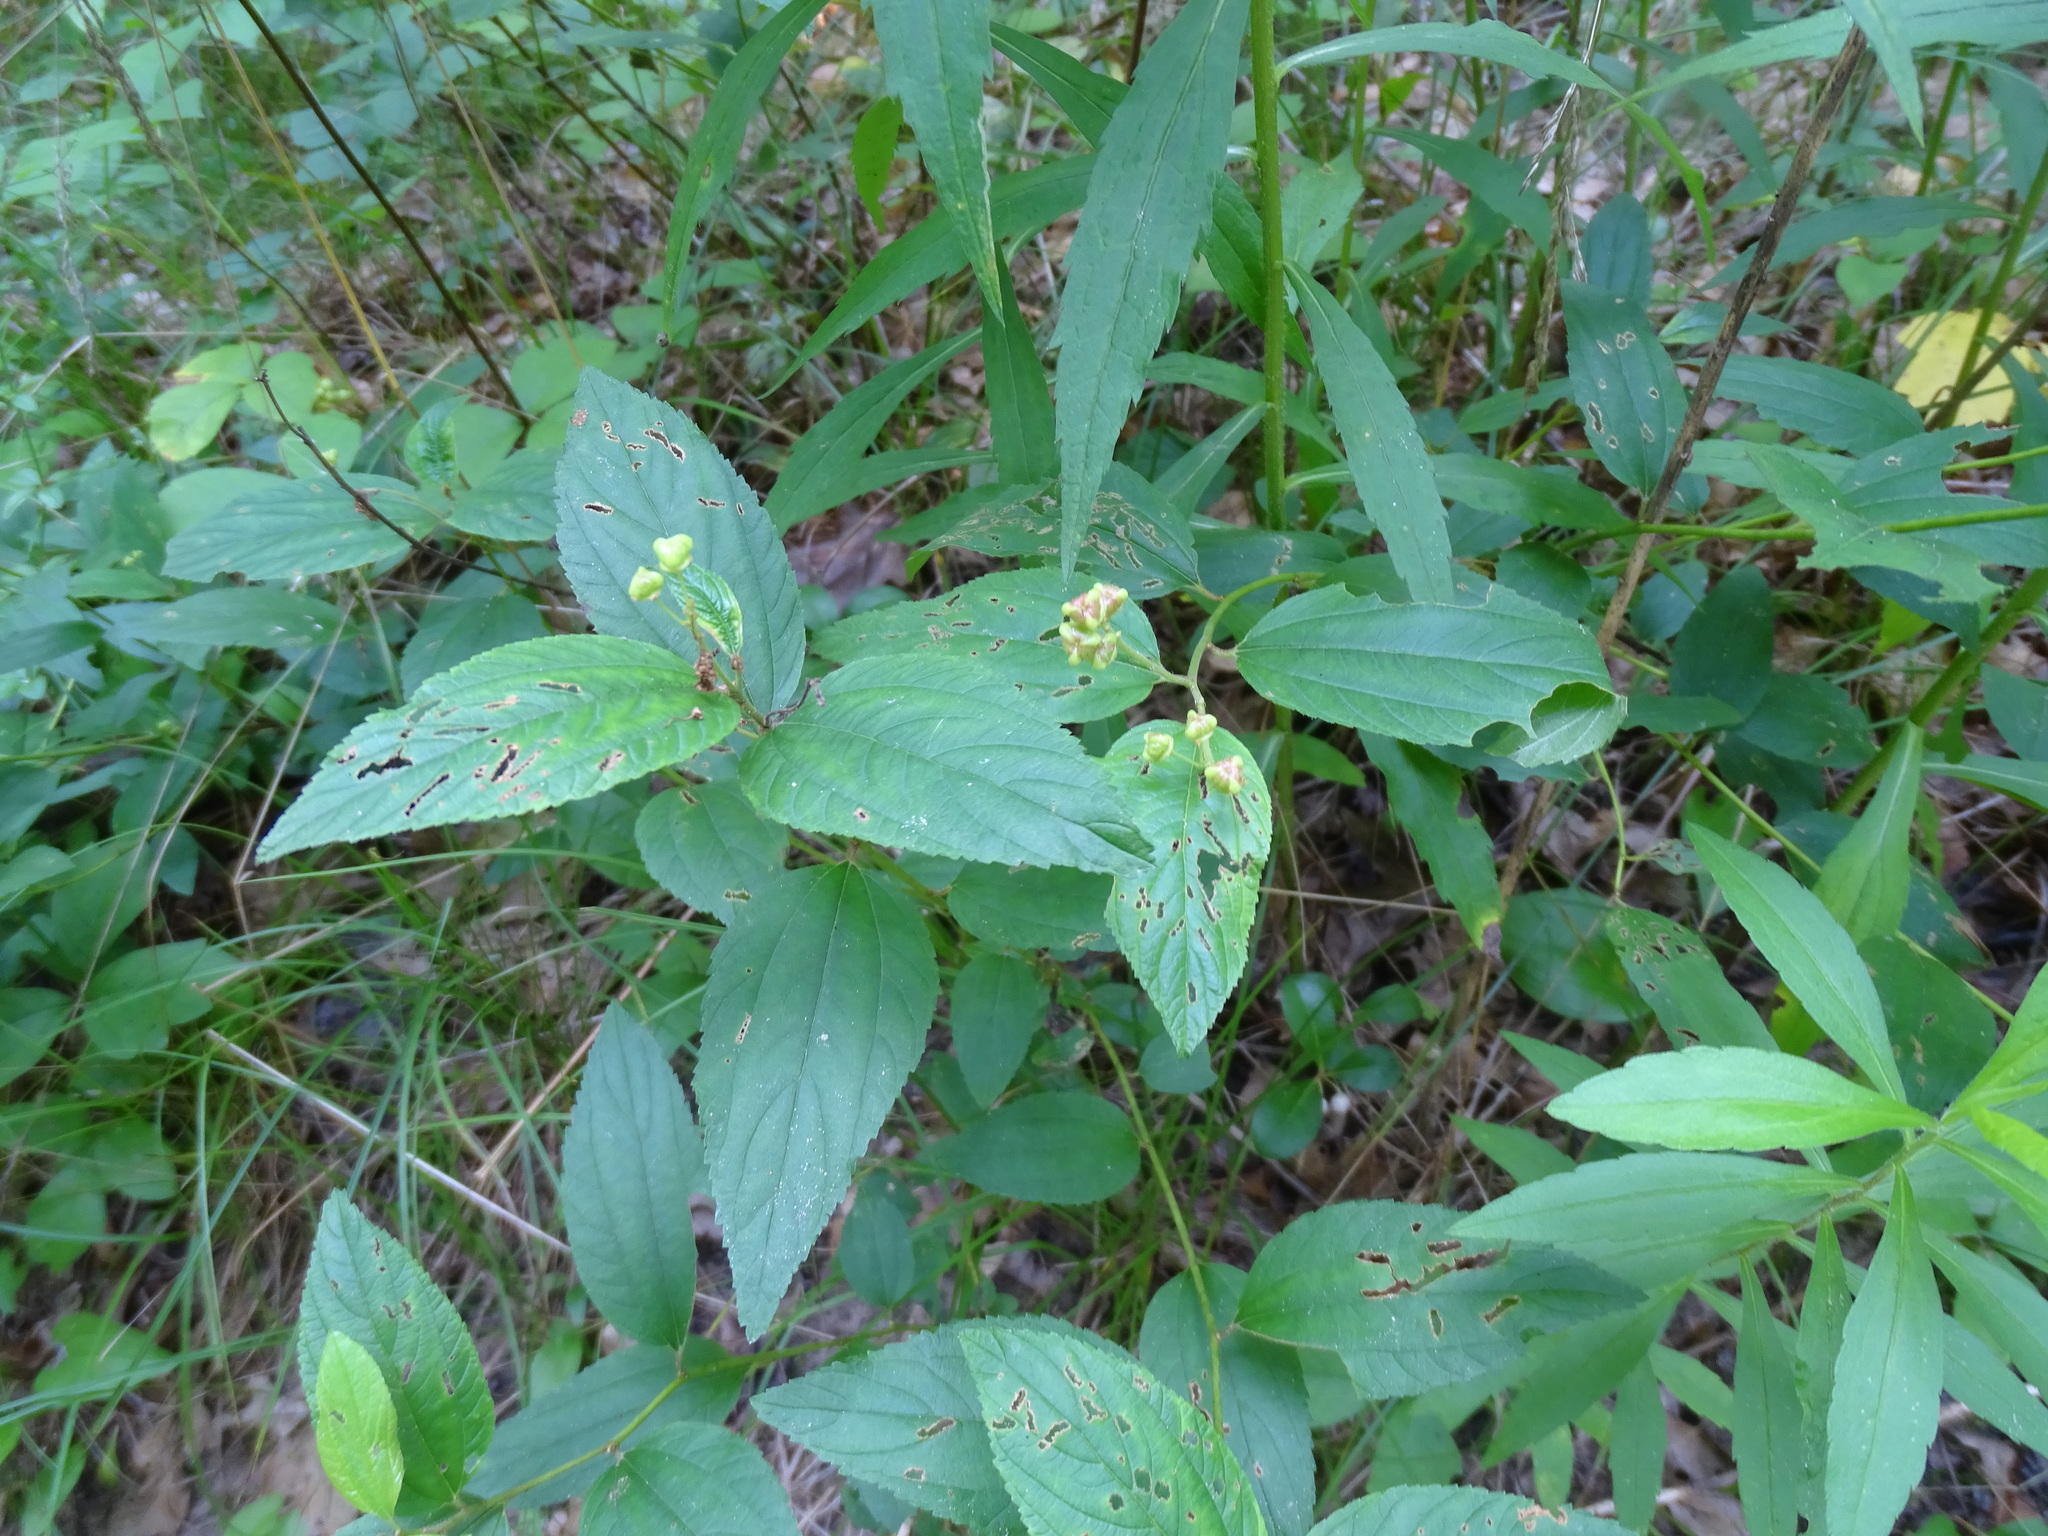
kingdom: Plantae
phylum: Tracheophyta
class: Magnoliopsida
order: Rosales
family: Rhamnaceae
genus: Ceanothus
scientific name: Ceanothus americanus
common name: Redroot
